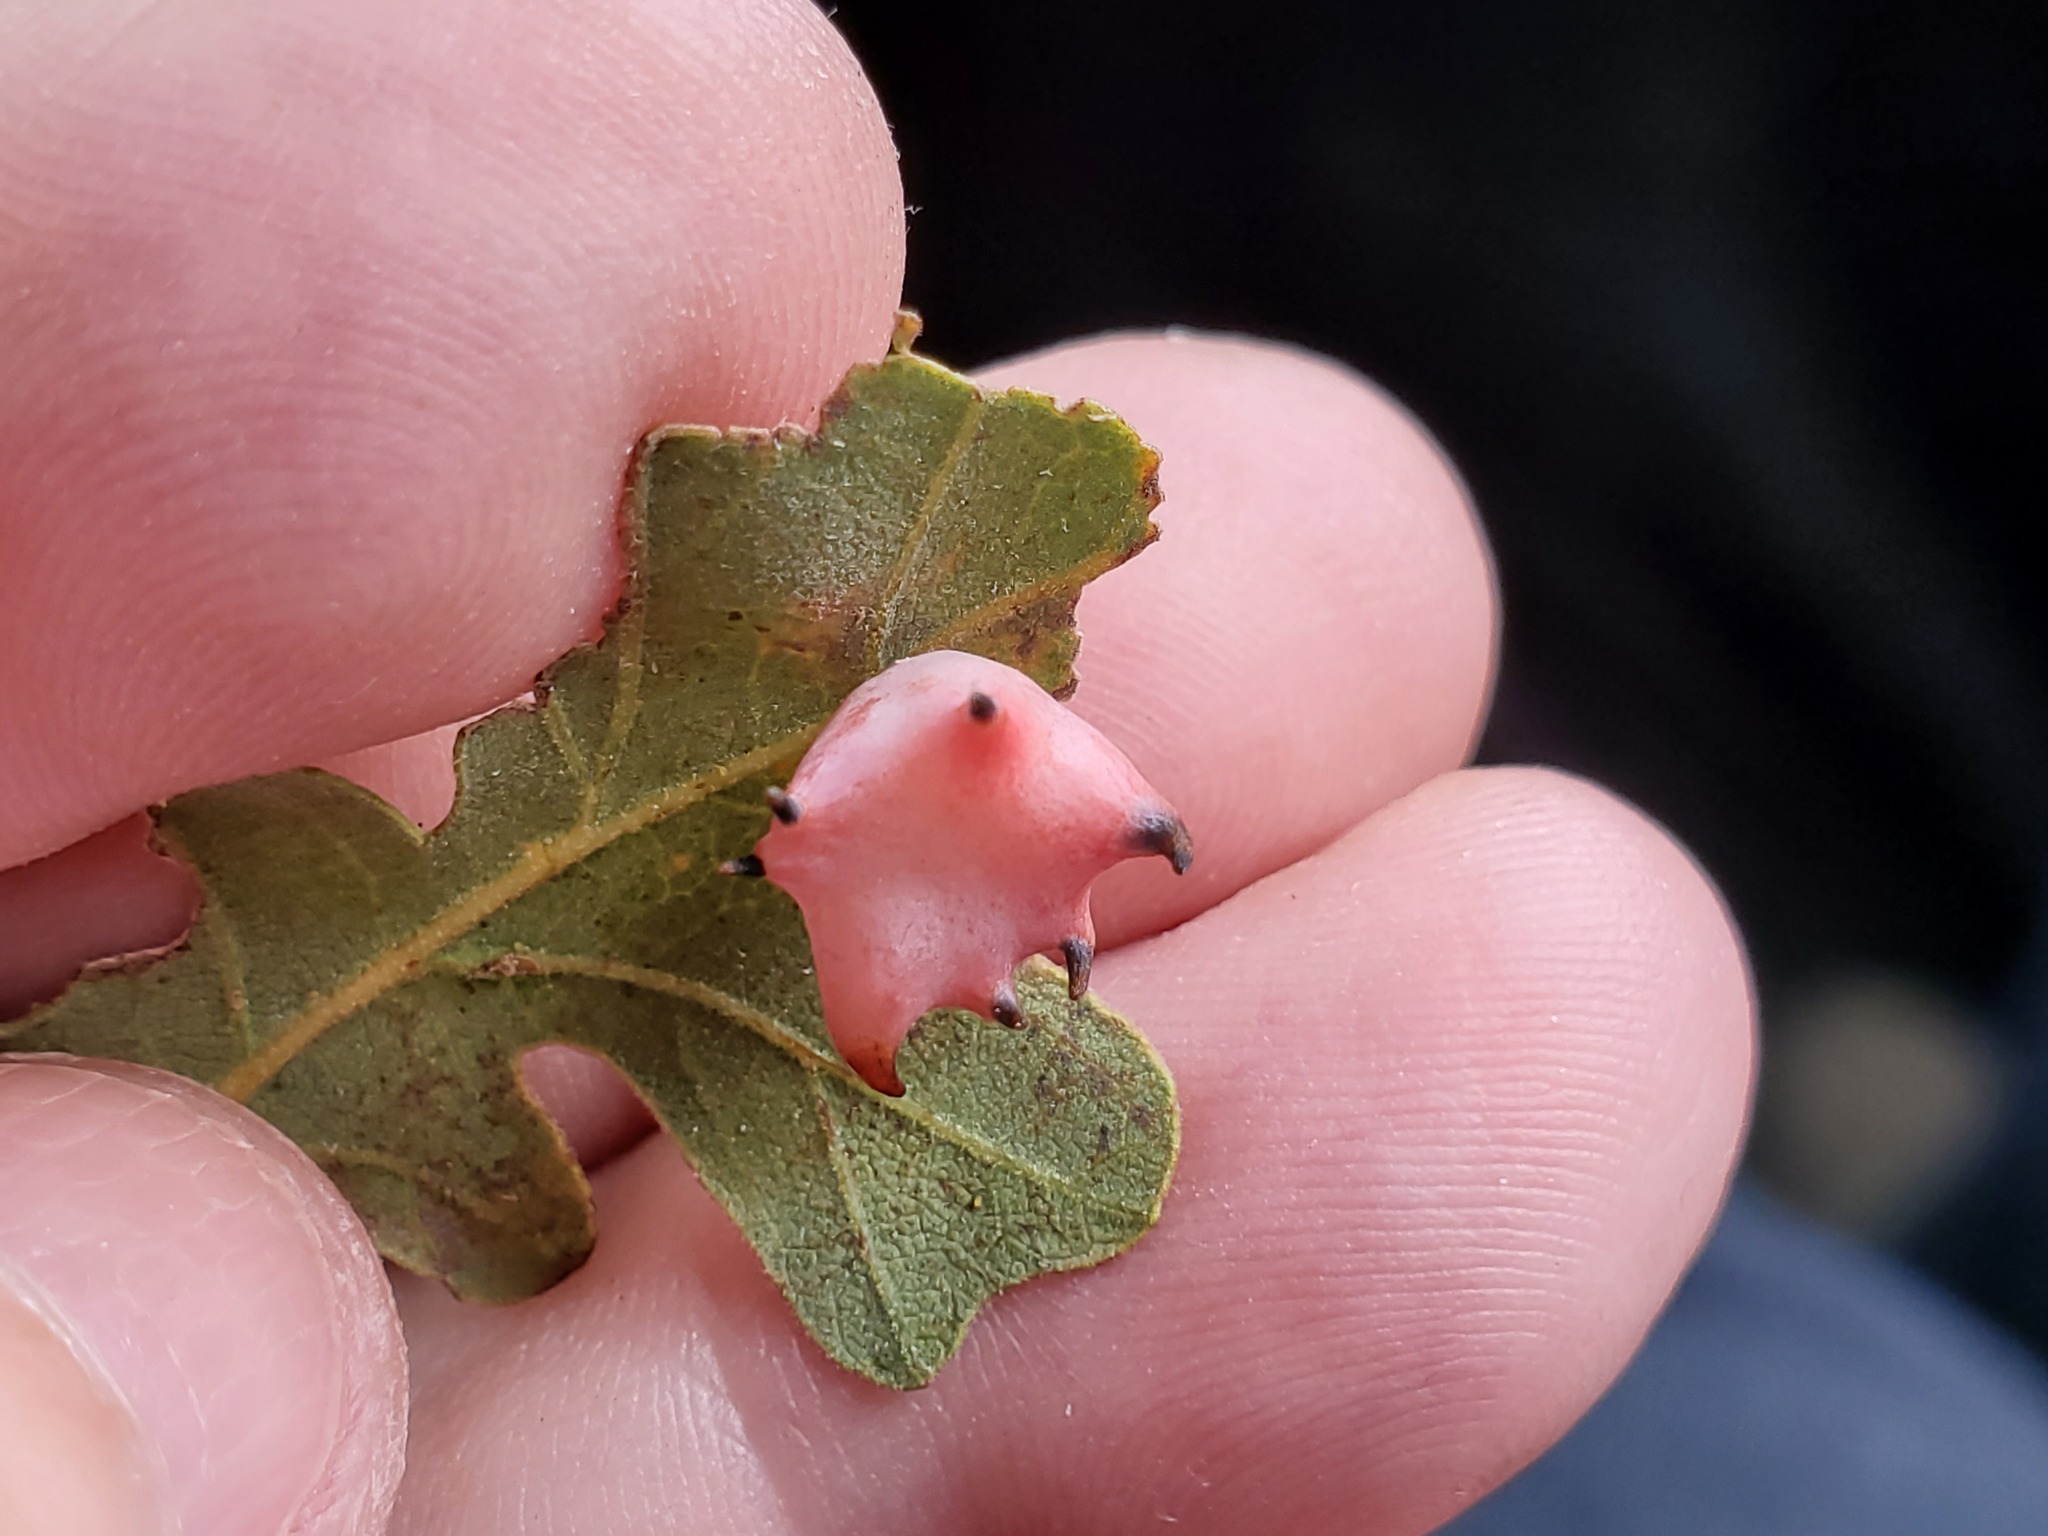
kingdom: Animalia
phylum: Arthropoda
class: Insecta
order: Hymenoptera
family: Cynipidae
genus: Cynips
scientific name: Cynips douglasi
